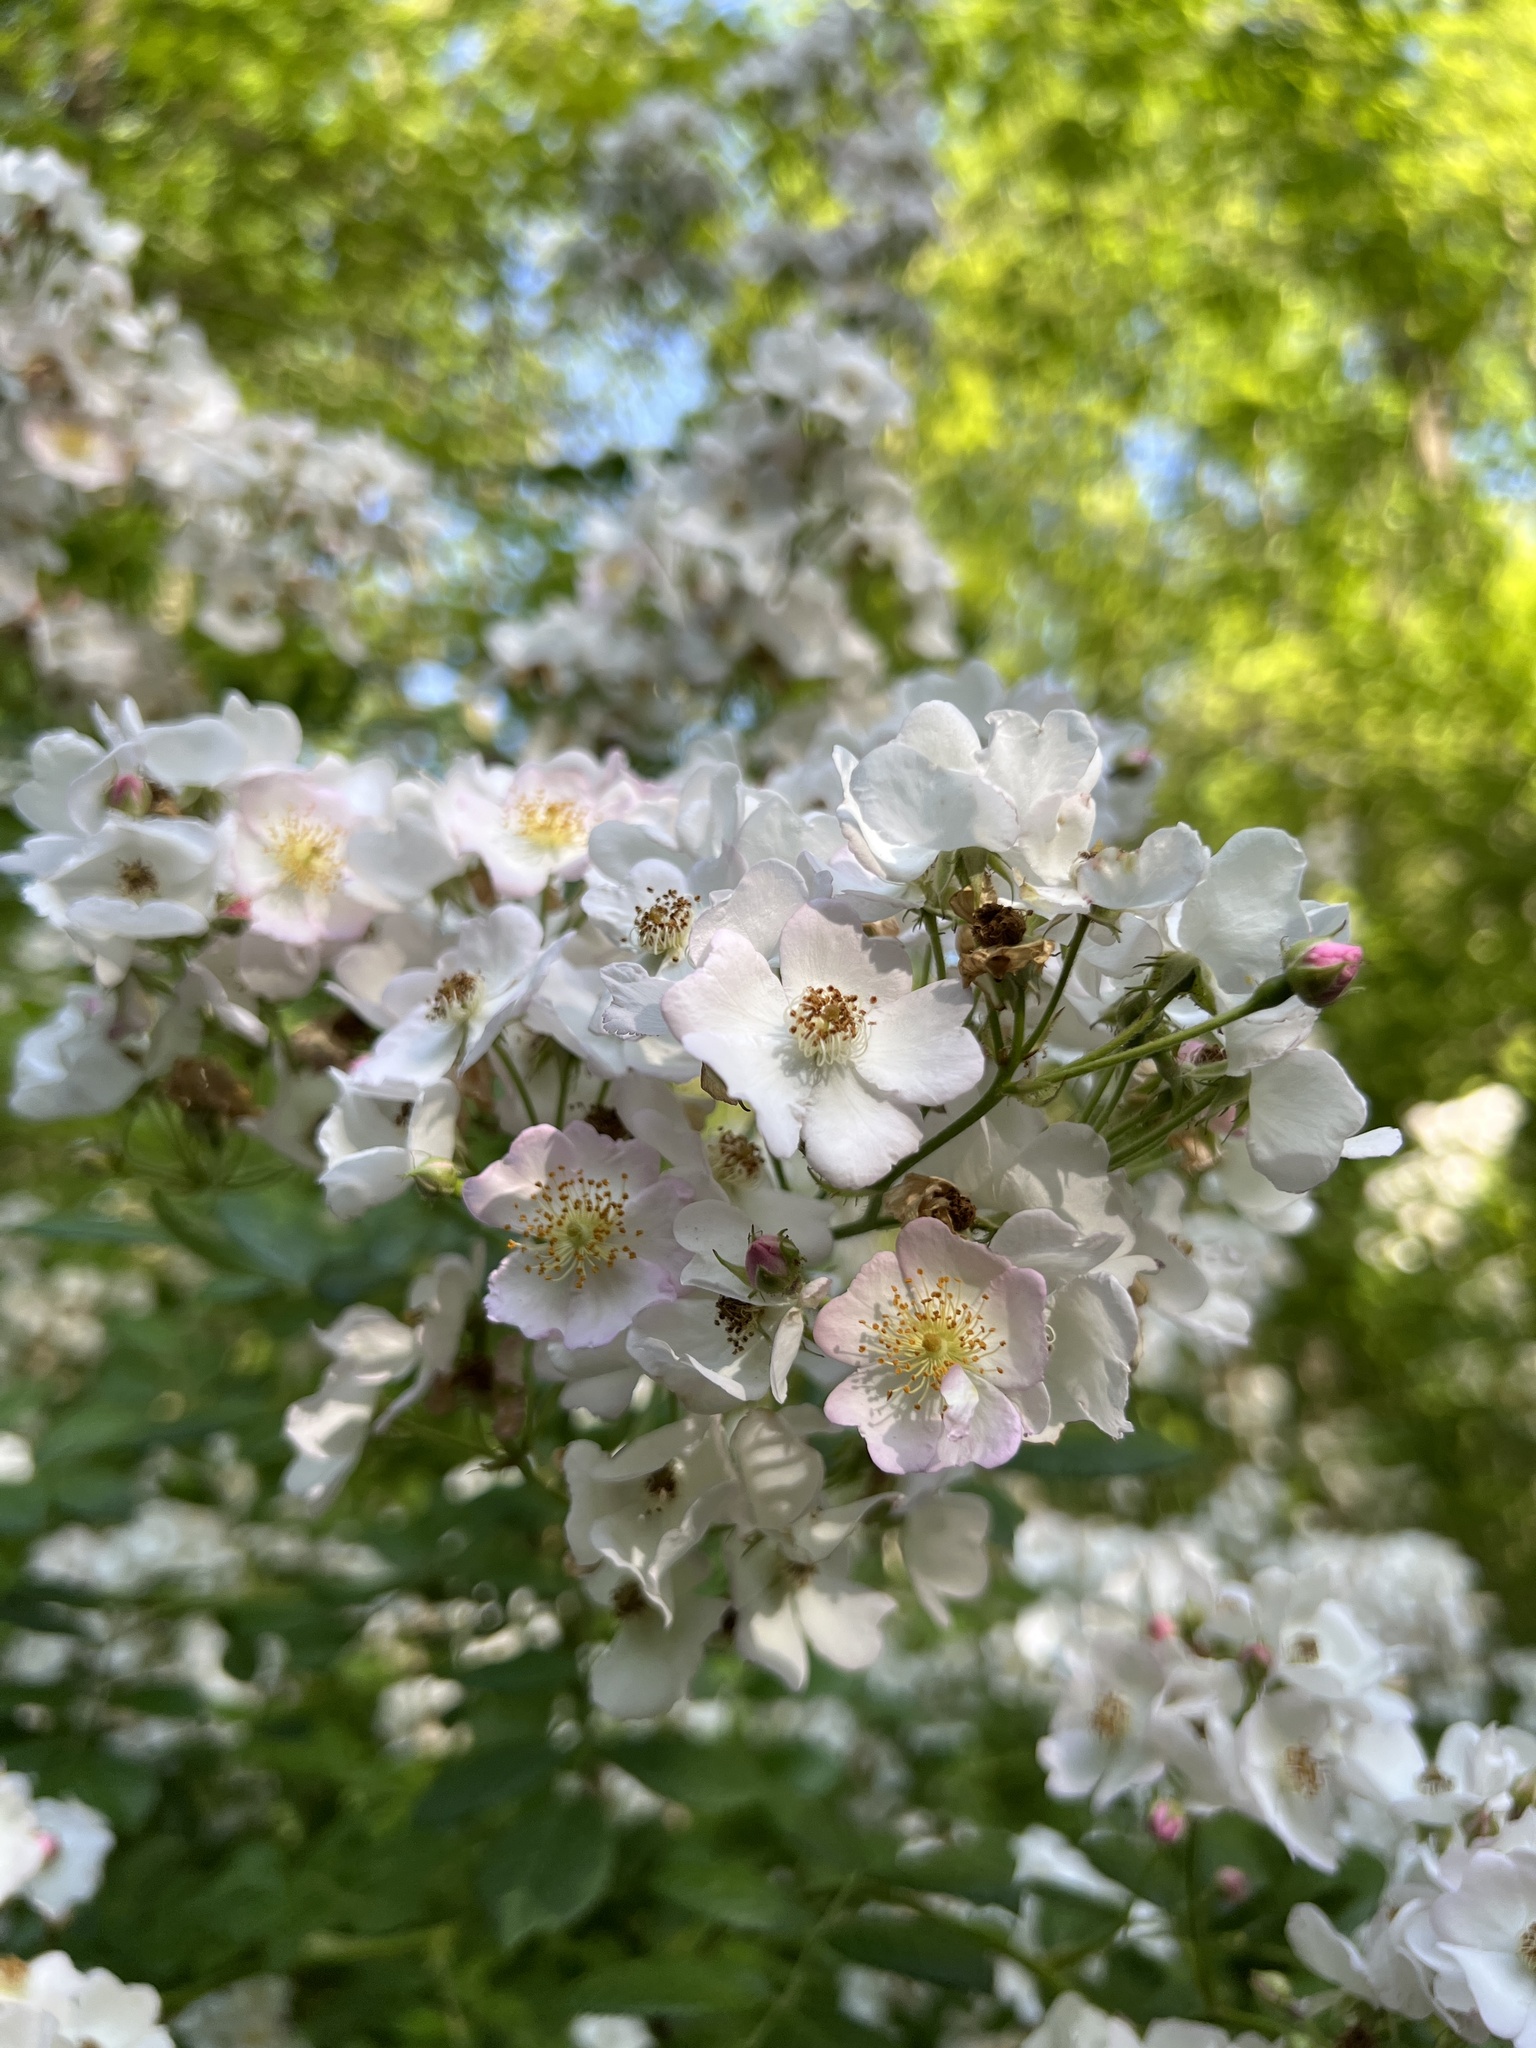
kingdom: Plantae
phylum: Tracheophyta
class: Magnoliopsida
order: Rosales
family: Rosaceae
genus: Rosa
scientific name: Rosa multiflora
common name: Multiflora rose
